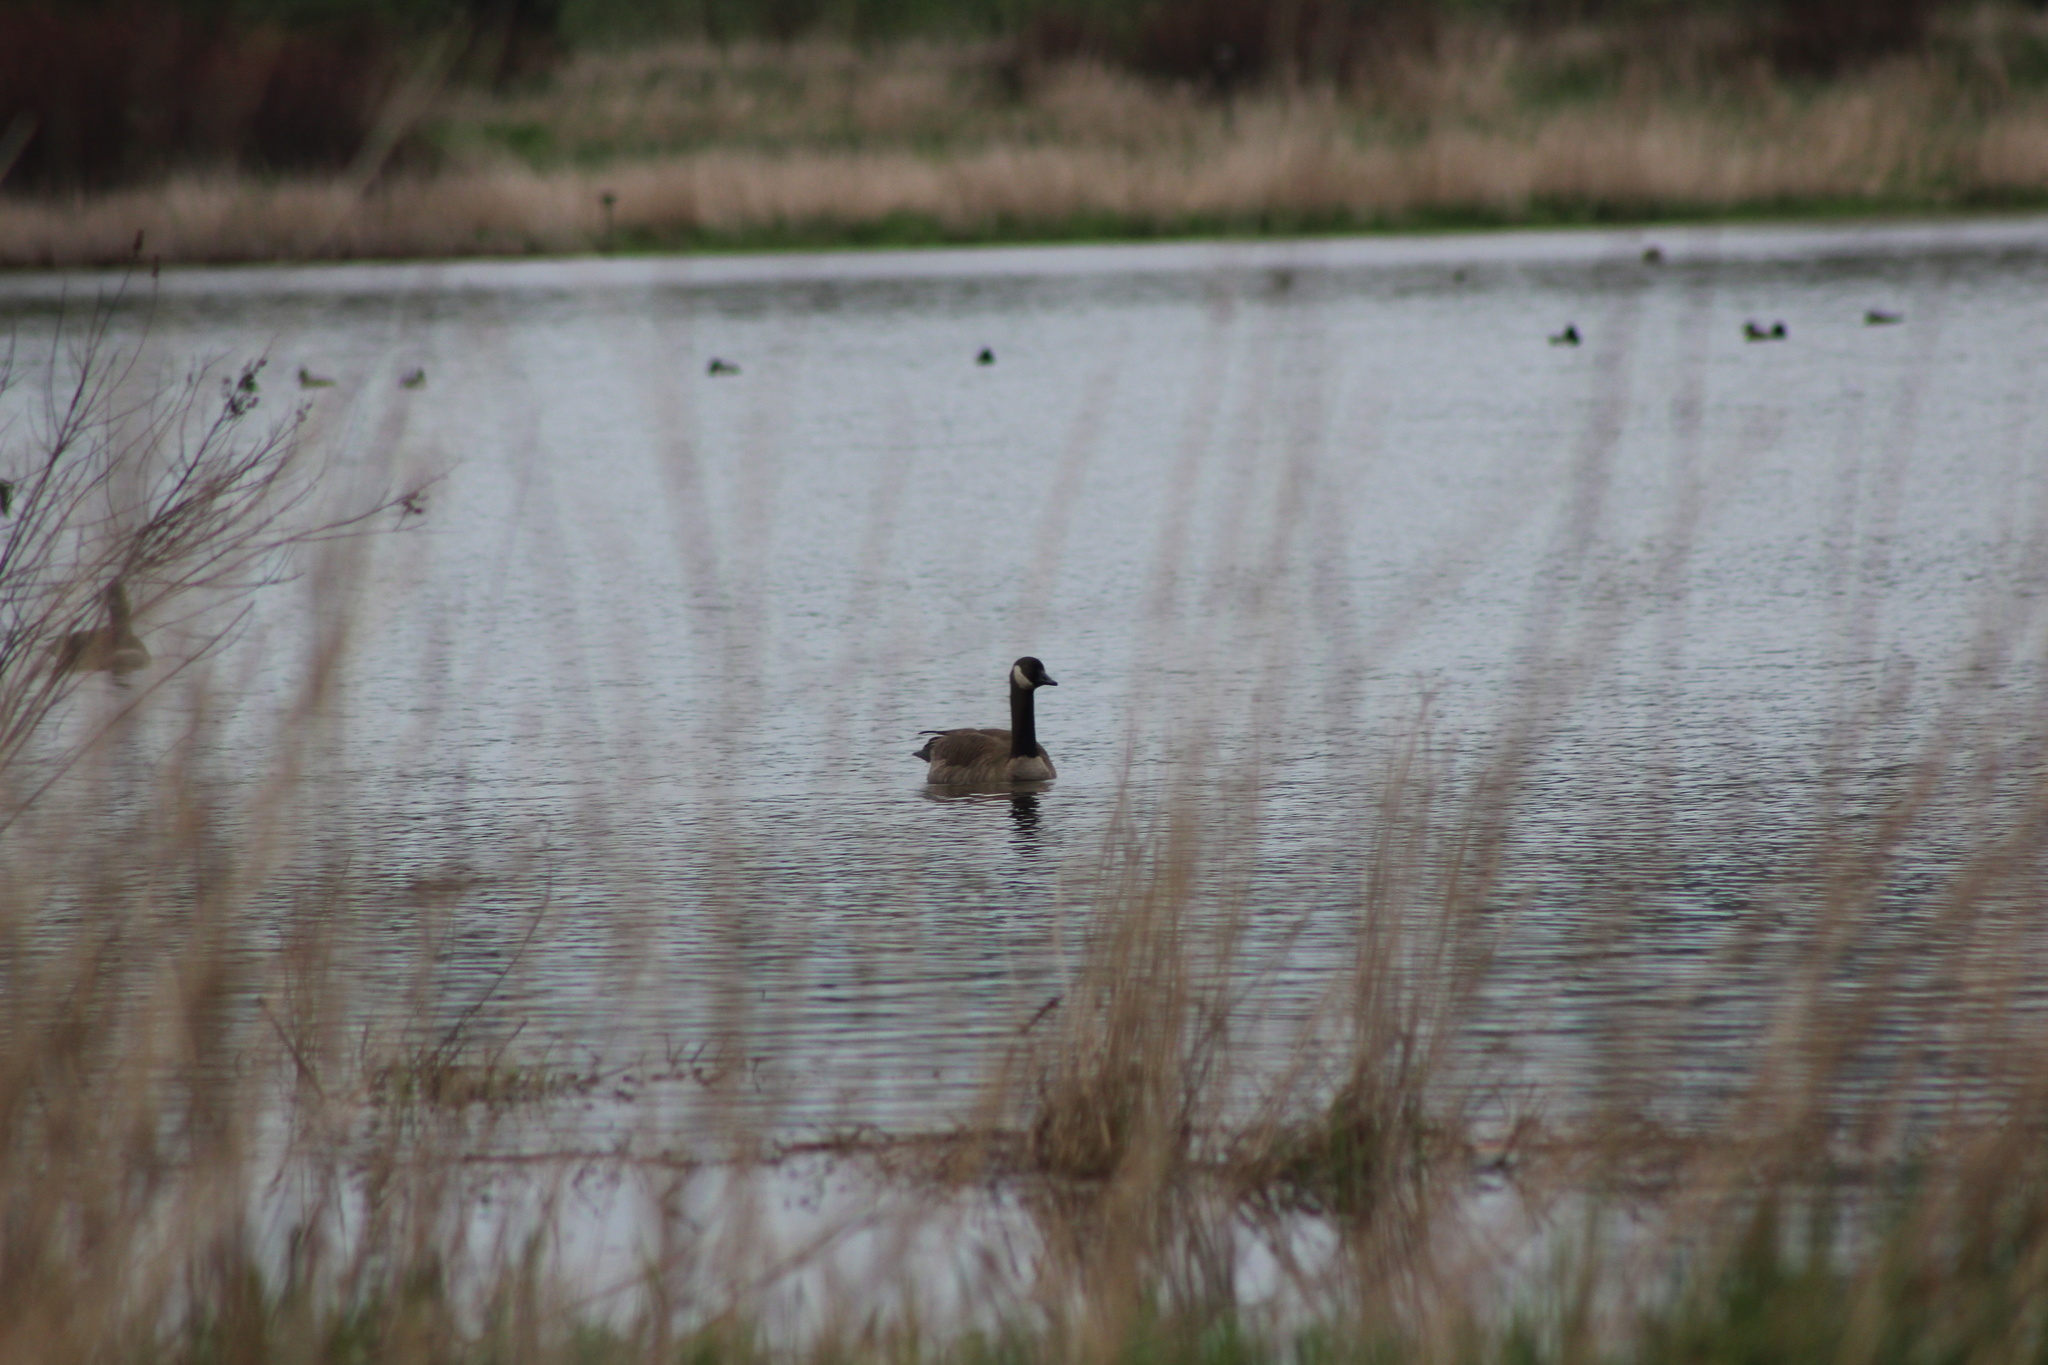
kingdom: Animalia
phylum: Chordata
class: Aves
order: Anseriformes
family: Anatidae
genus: Branta
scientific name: Branta canadensis
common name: Canada goose
